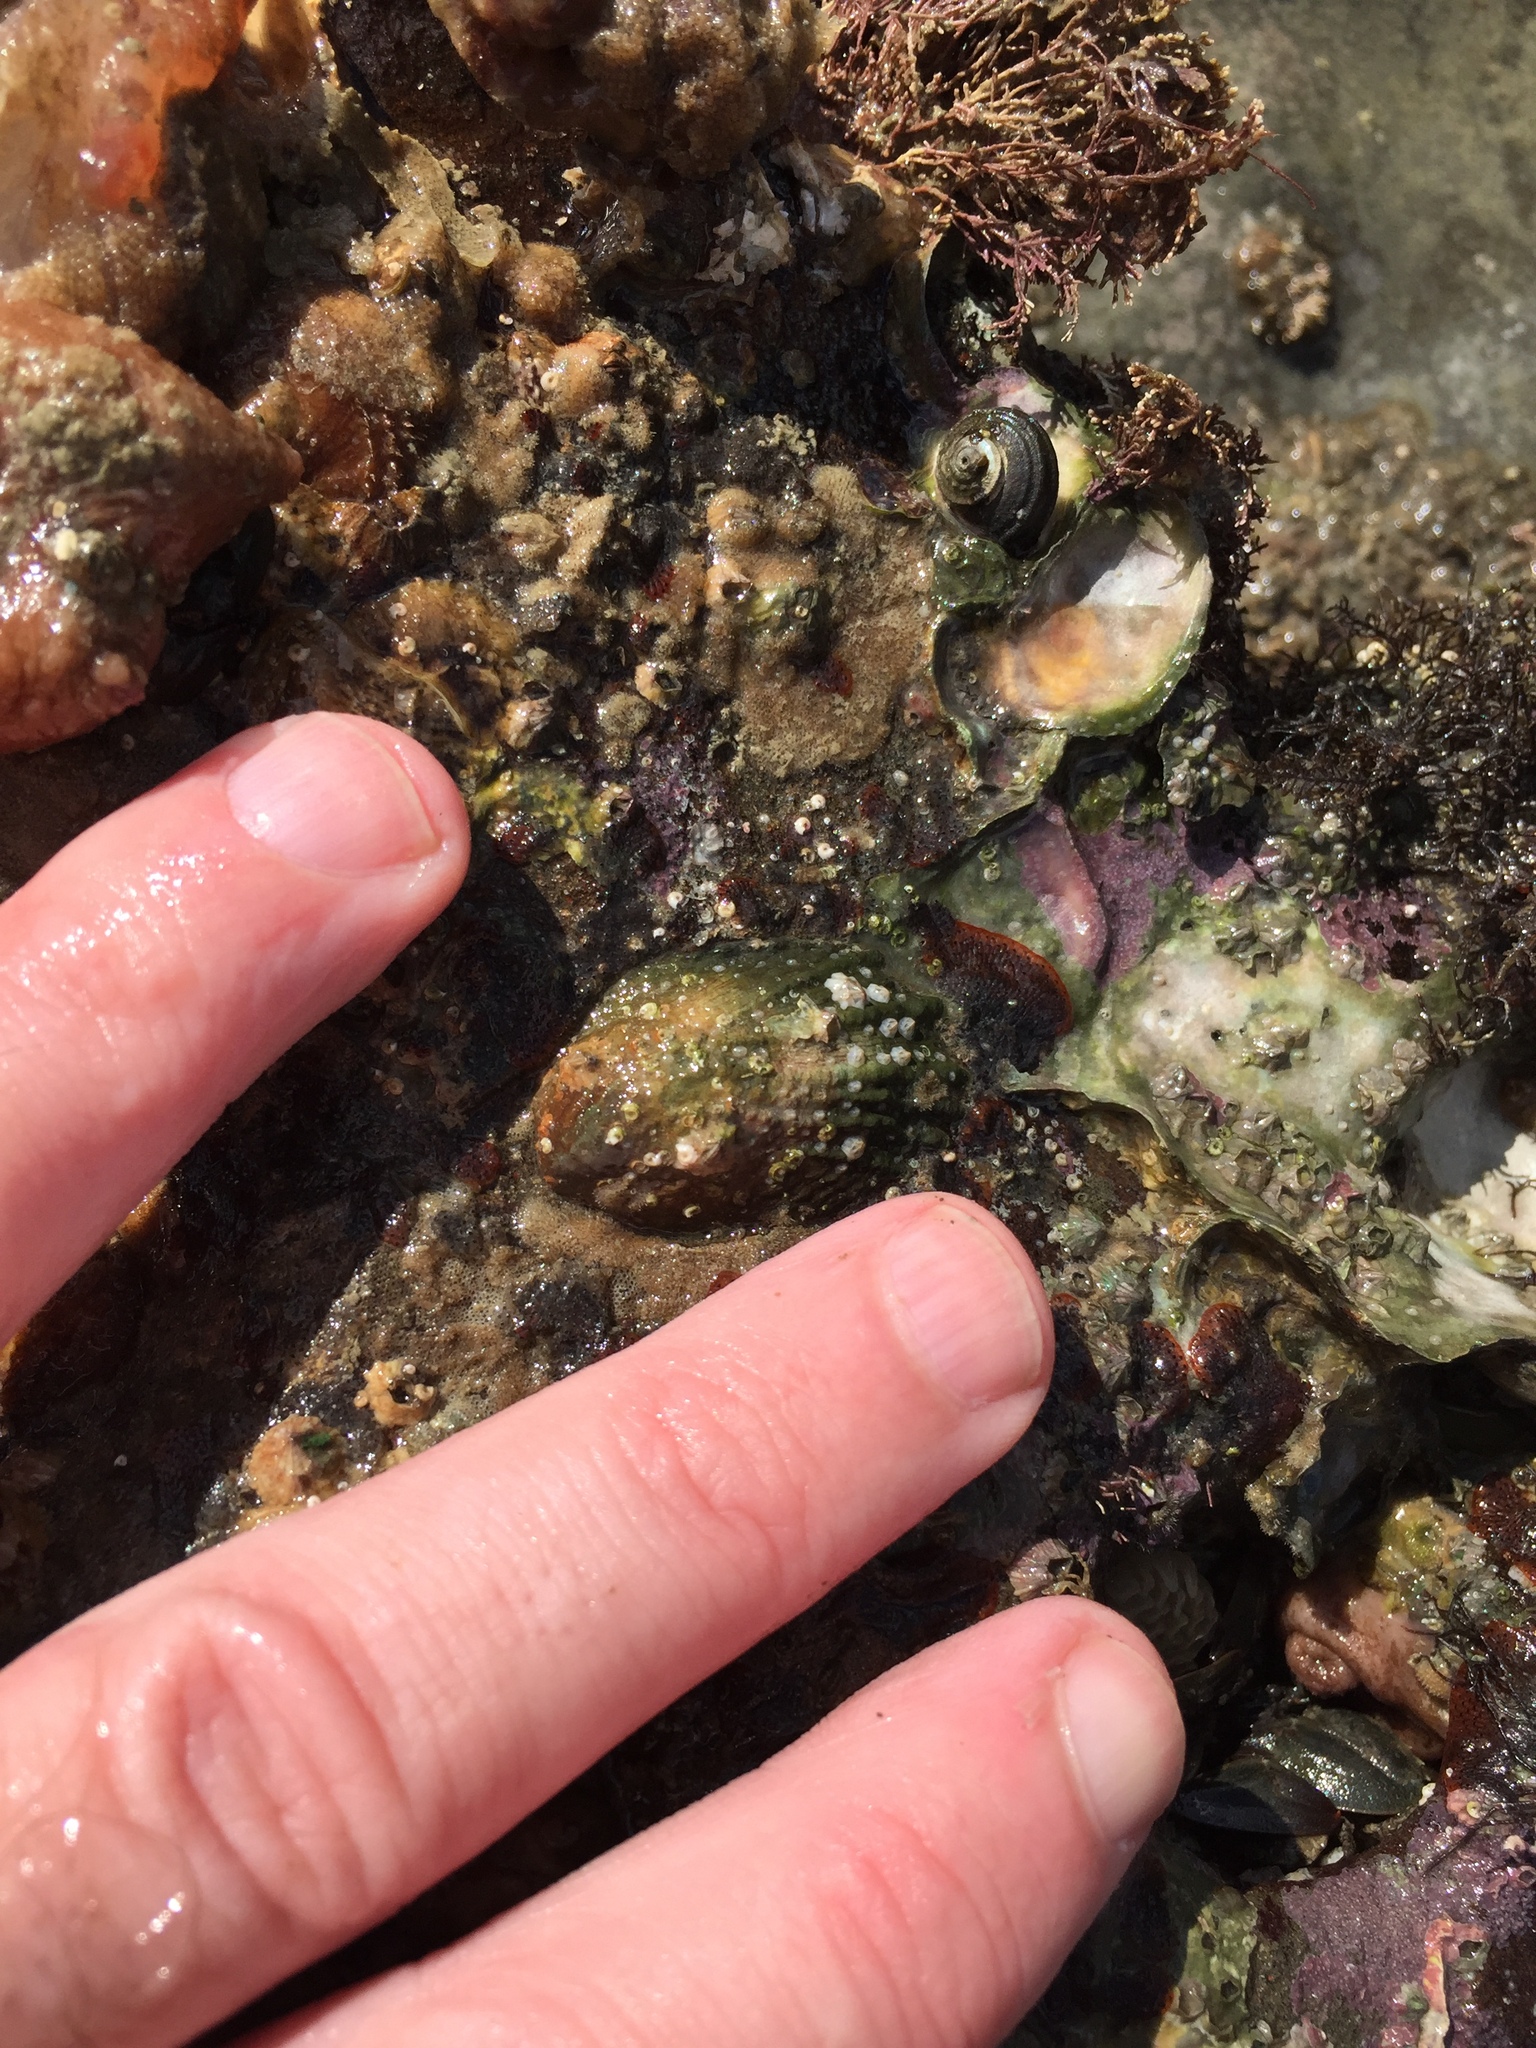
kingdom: Animalia
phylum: Mollusca
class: Gastropoda
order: Littorinimorpha
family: Calyptraeidae
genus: Maoricrypta
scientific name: Maoricrypta costata
